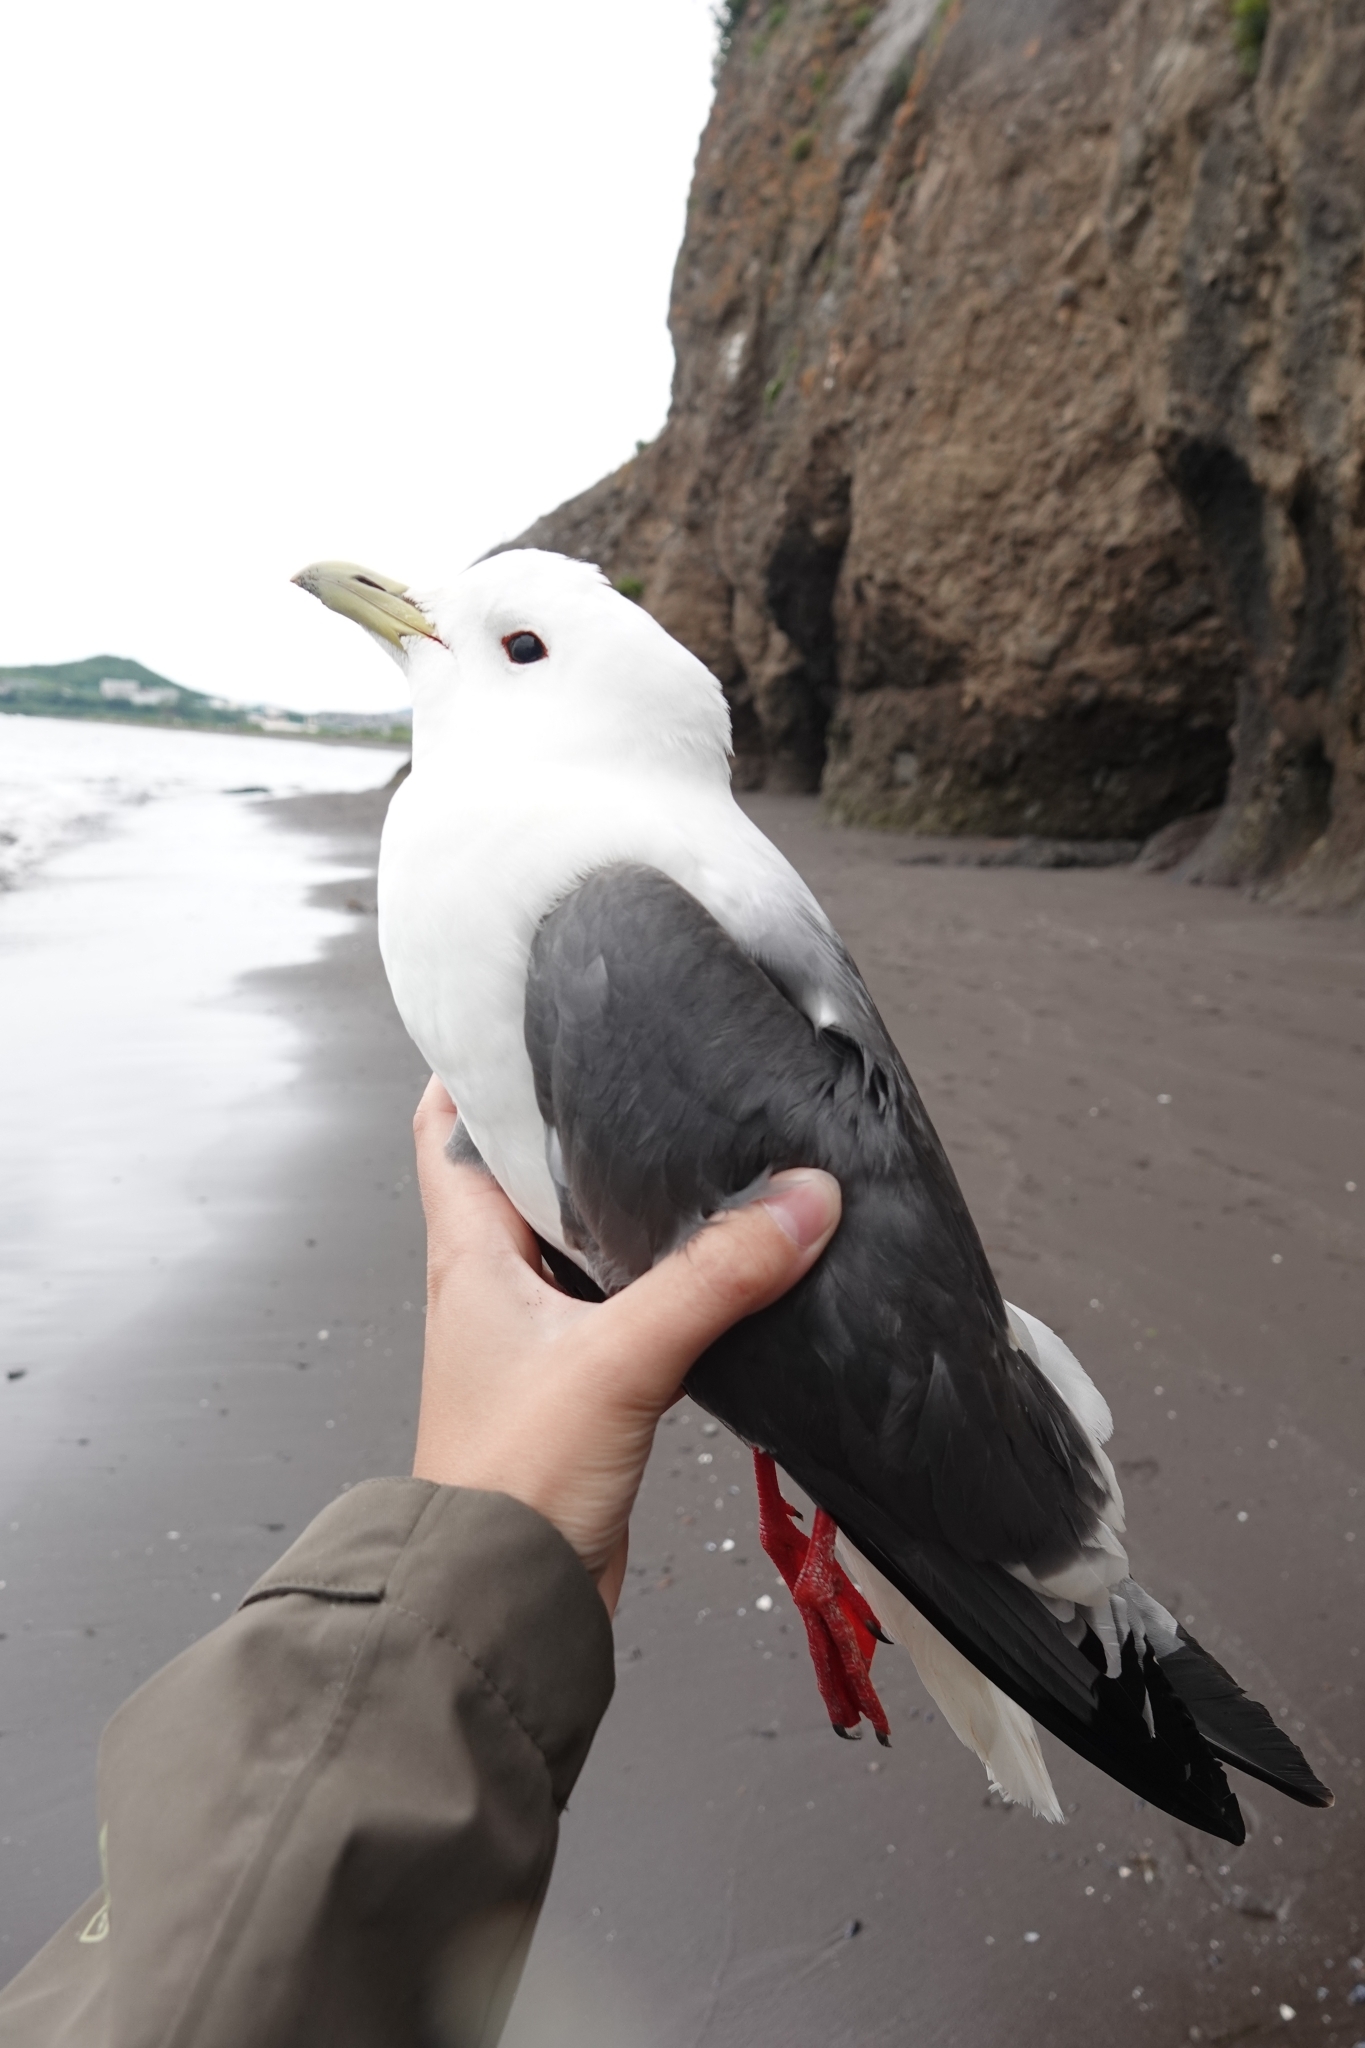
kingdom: Animalia
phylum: Chordata
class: Aves
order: Charadriiformes
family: Laridae
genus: Rissa
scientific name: Rissa brevirostris
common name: Red-legged kittiwake
